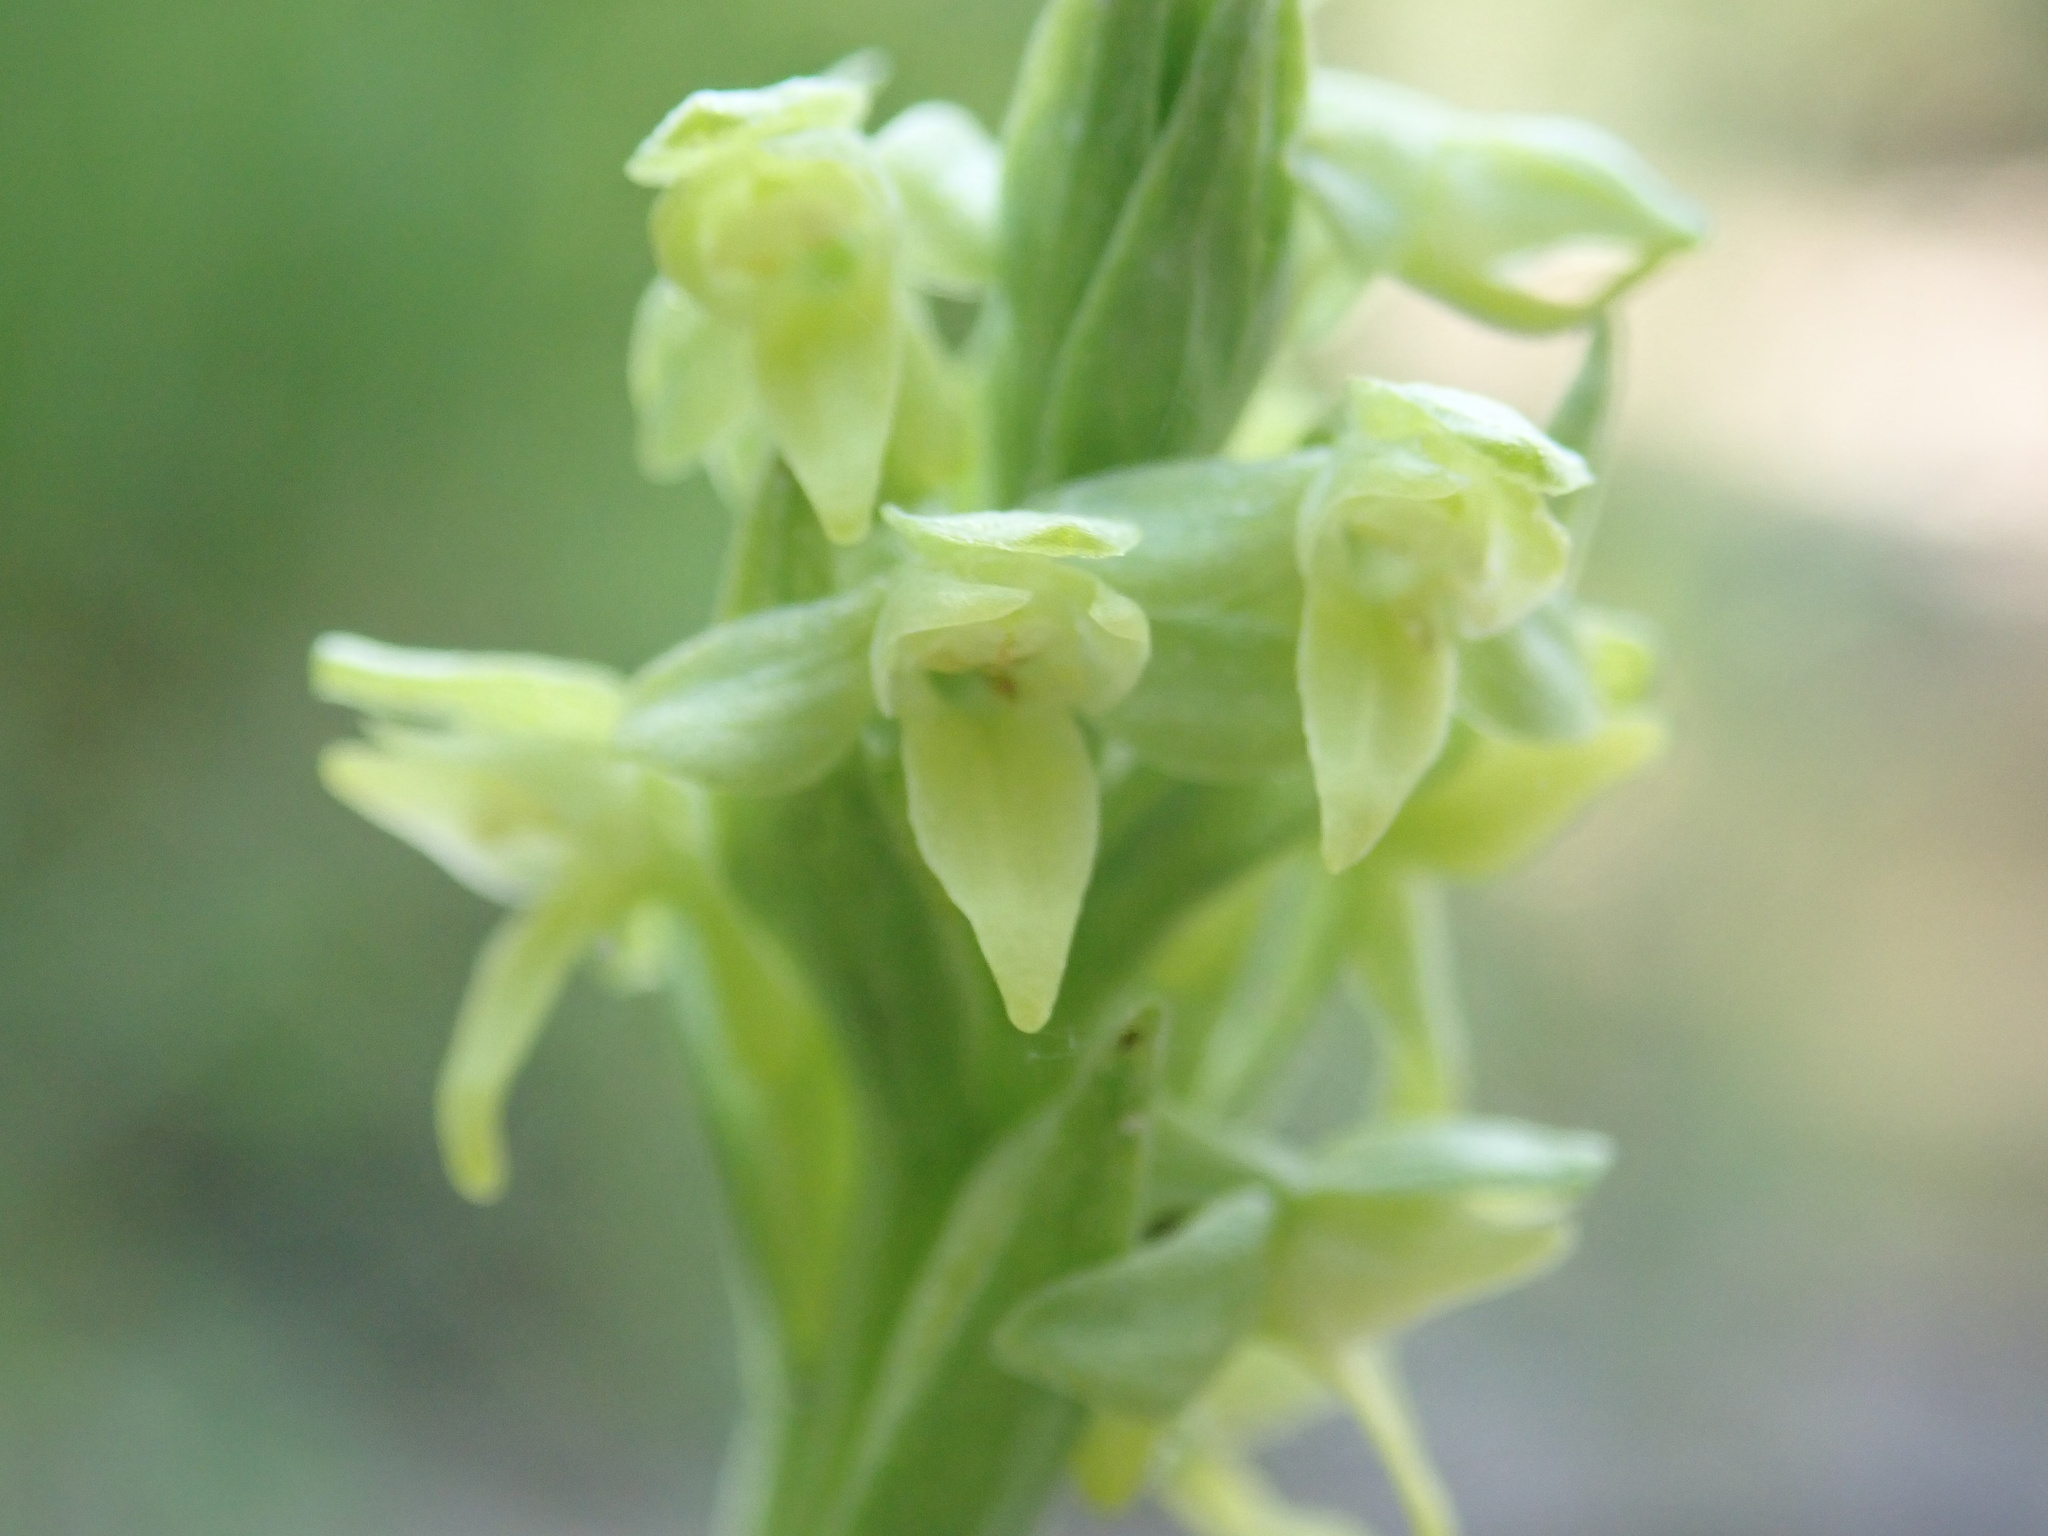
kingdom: Plantae
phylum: Tracheophyta
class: Liliopsida
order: Asparagales
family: Orchidaceae
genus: Platanthera
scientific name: Platanthera aquilonis
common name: Northern green orchid
